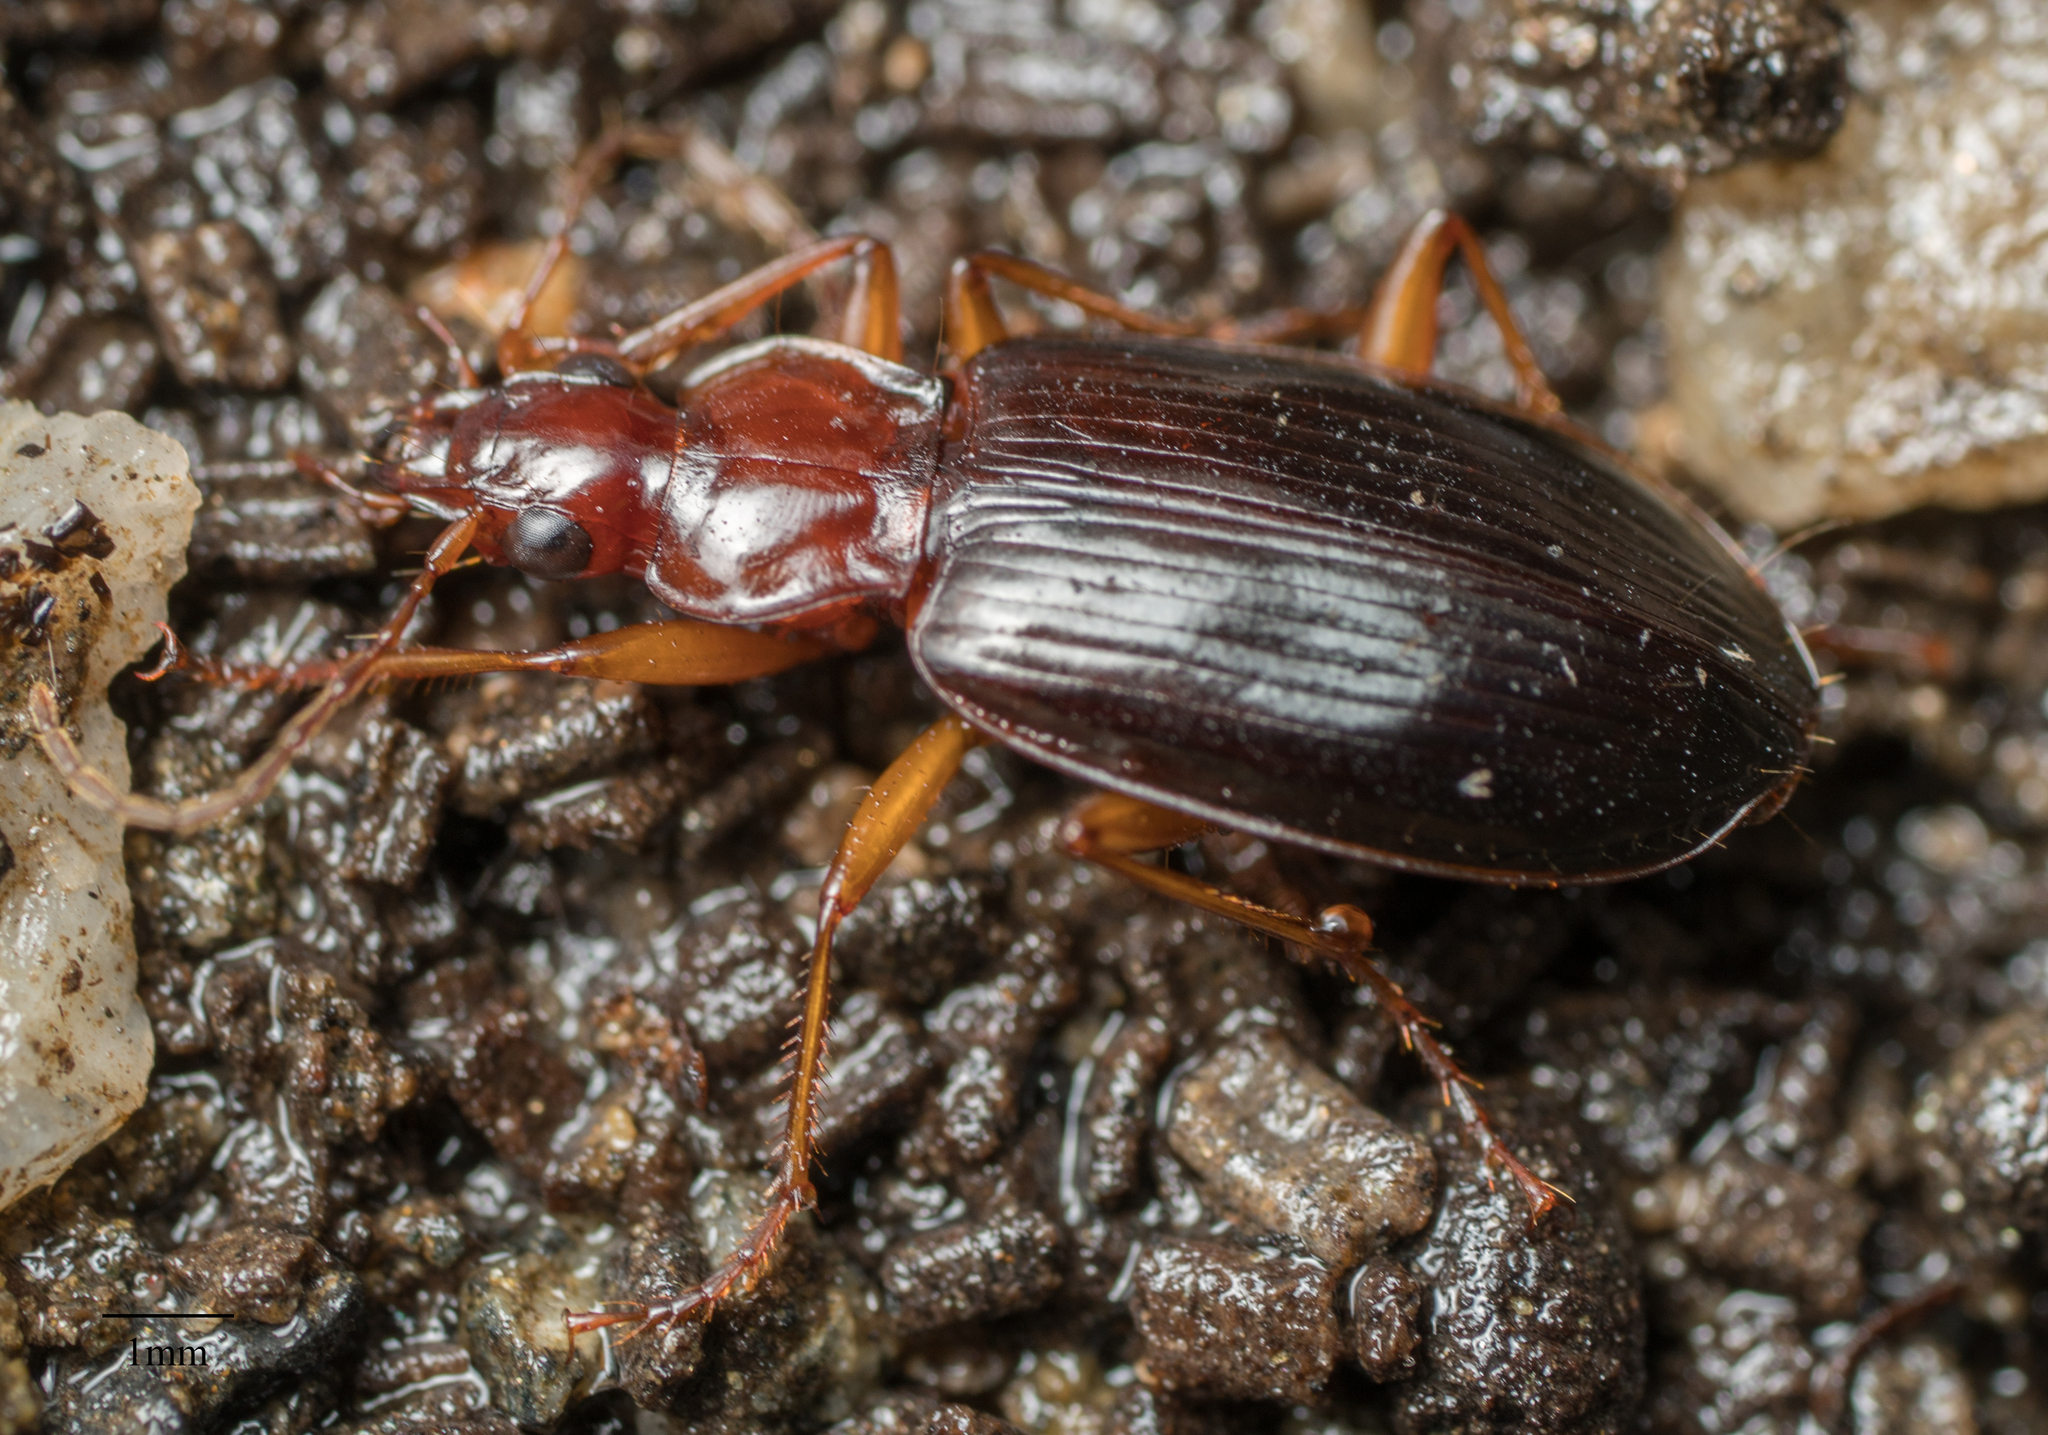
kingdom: Animalia
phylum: Arthropoda
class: Insecta
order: Coleoptera
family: Carabidae
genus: Platynus
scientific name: Platynus brunneomarginatus
